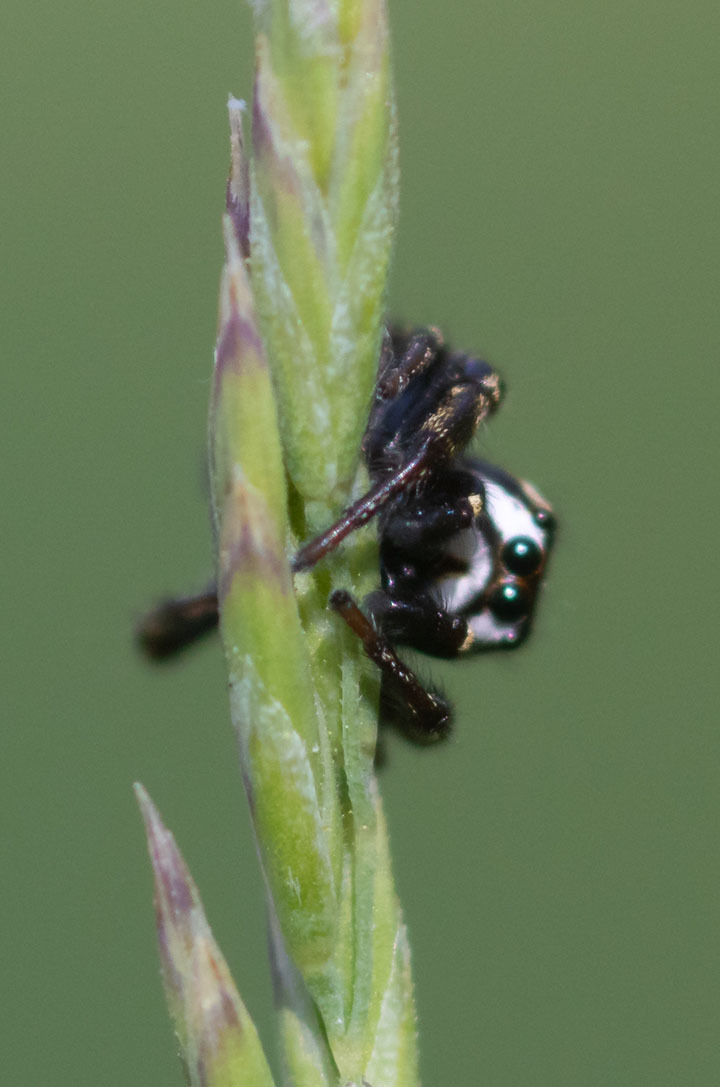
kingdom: Animalia
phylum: Arthropoda
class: Arachnida
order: Araneae
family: Salticidae
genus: Metaphidippus
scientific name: Metaphidippus manni
